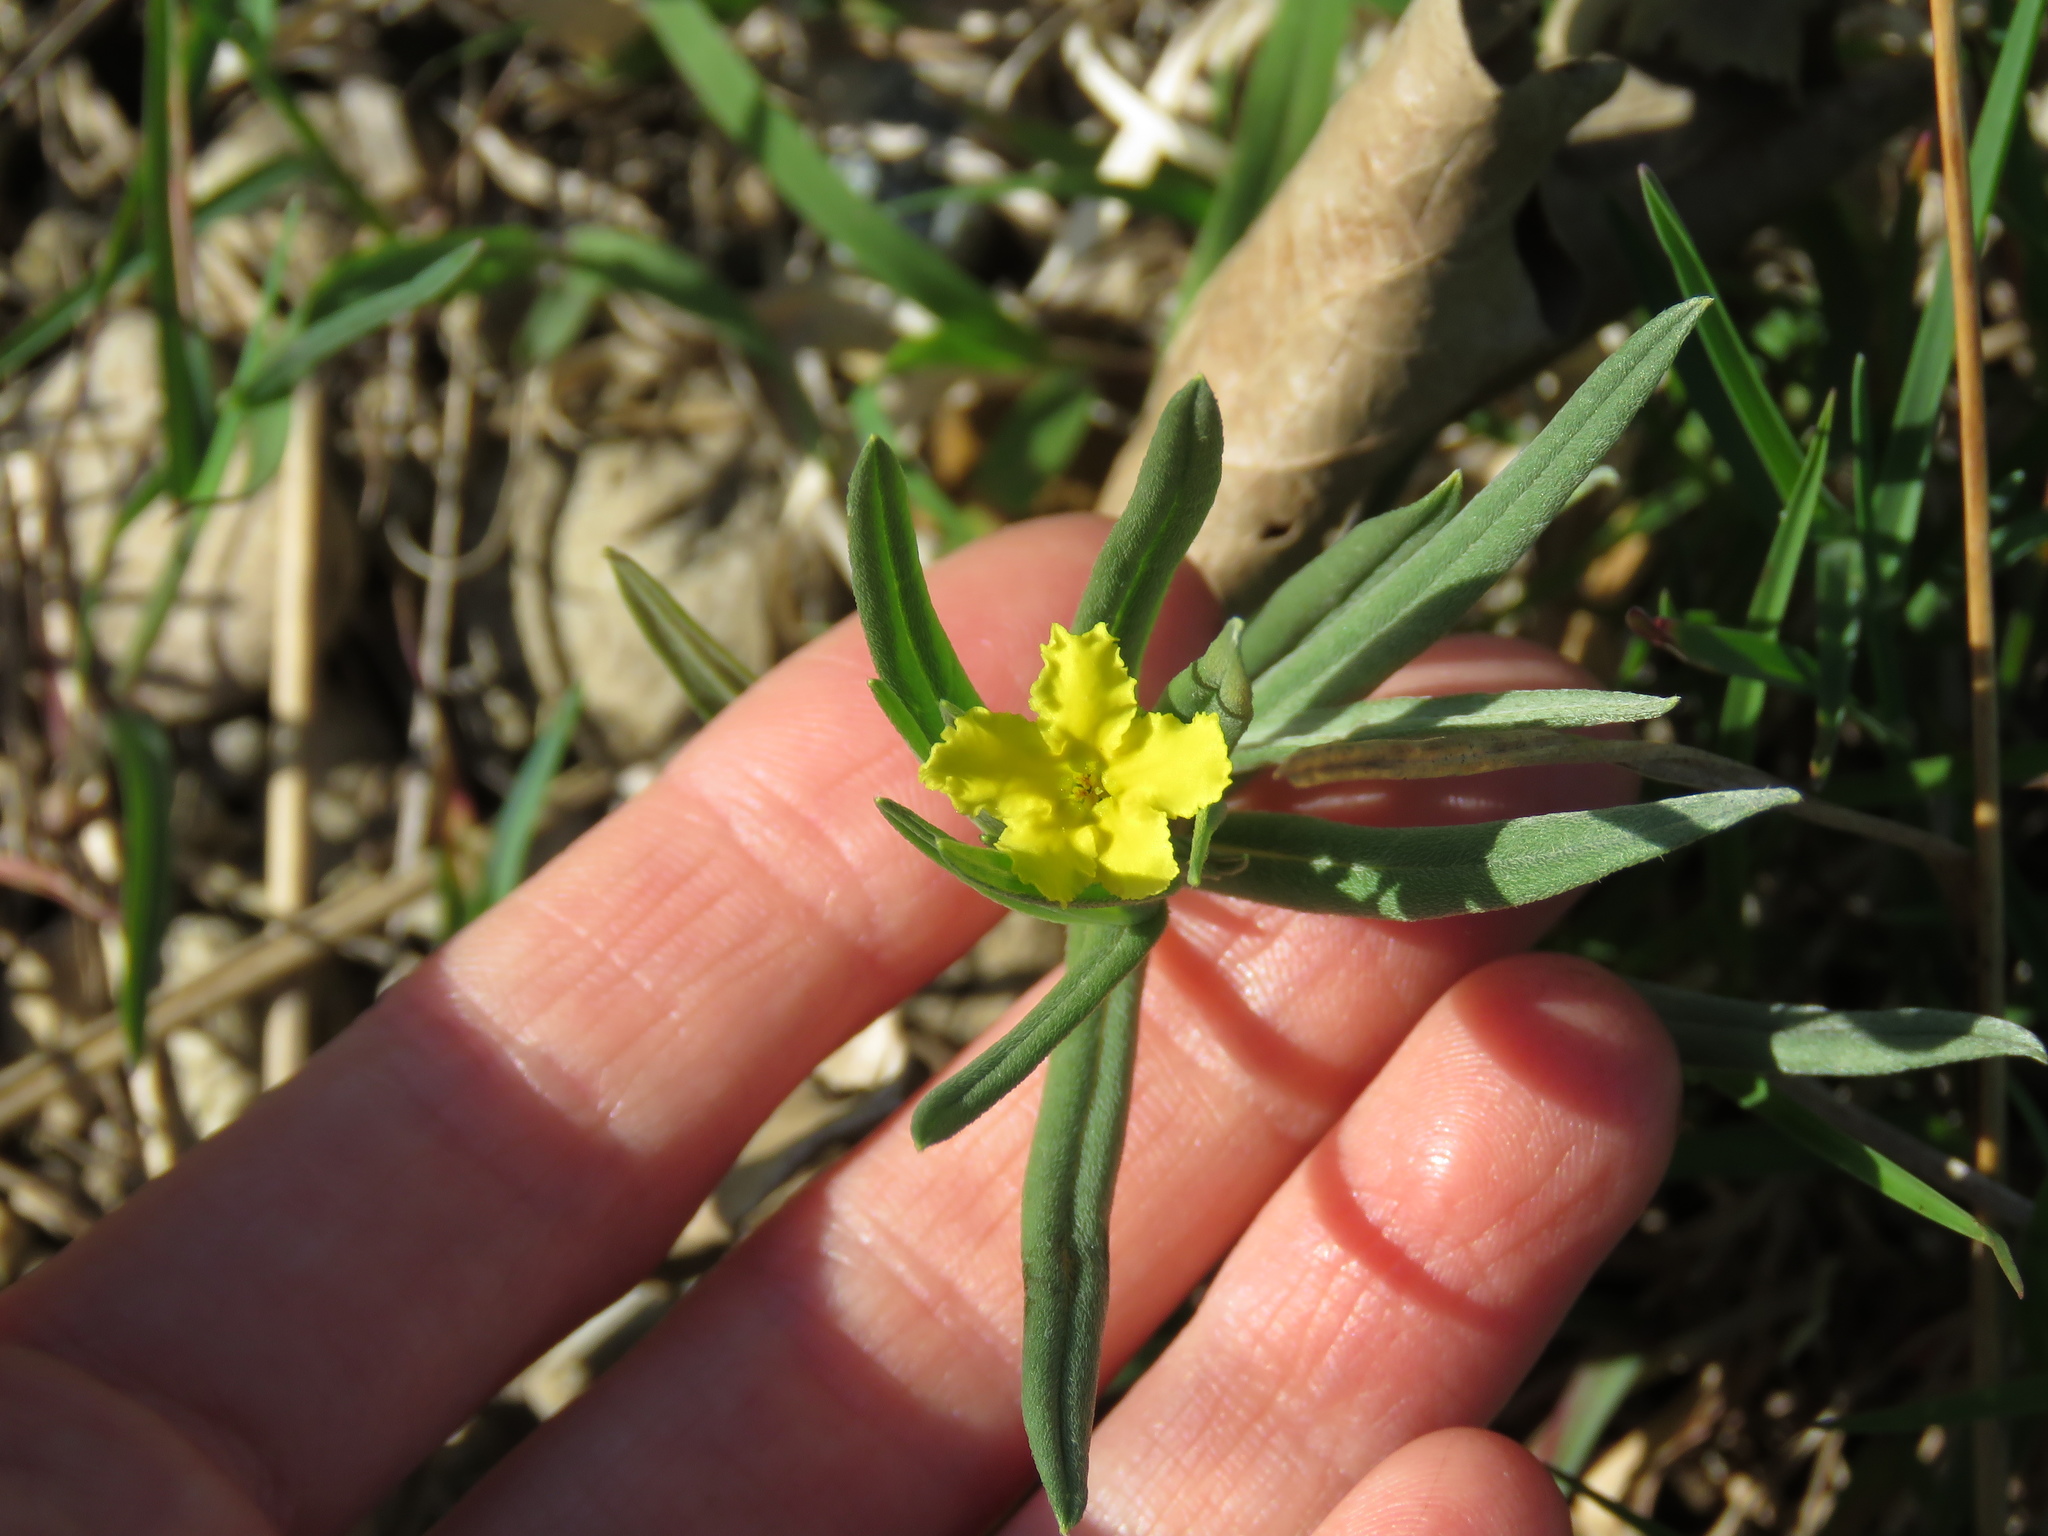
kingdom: Plantae
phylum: Tracheophyta
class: Magnoliopsida
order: Boraginales
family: Boraginaceae
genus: Lithospermum
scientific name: Lithospermum incisum
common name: Fringed gromwell
